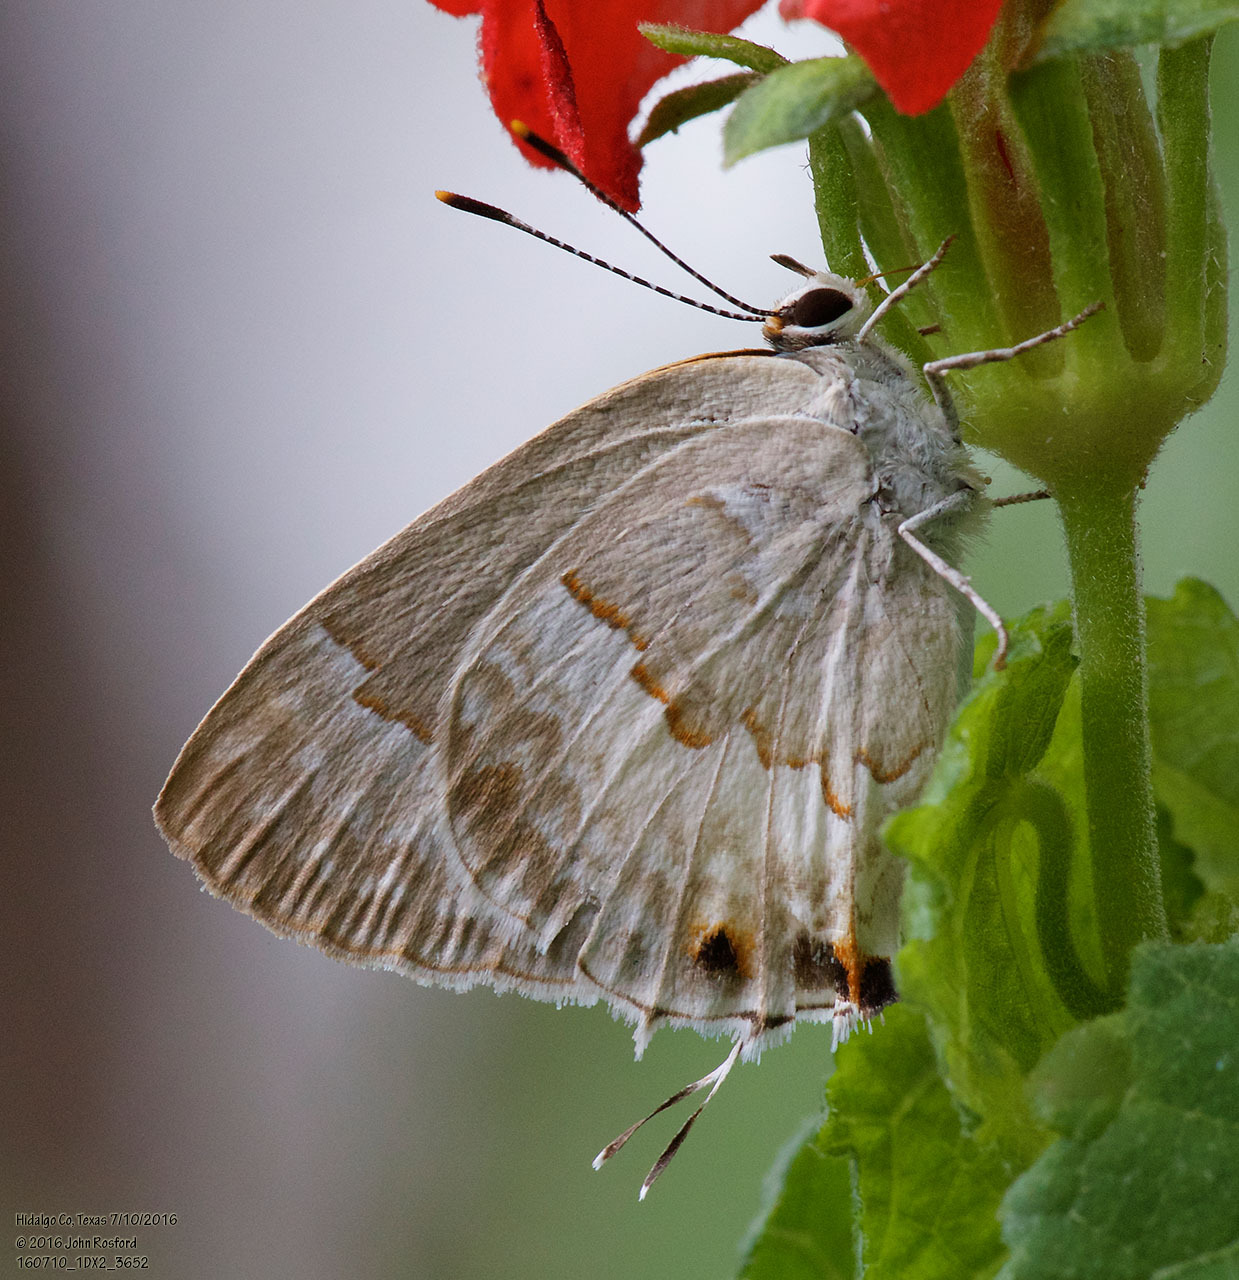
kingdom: Animalia
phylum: Arthropoda
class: Insecta
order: Lepidoptera
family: Lycaenidae
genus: Strymon
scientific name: Strymon albata
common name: White scrub-hairstreak
